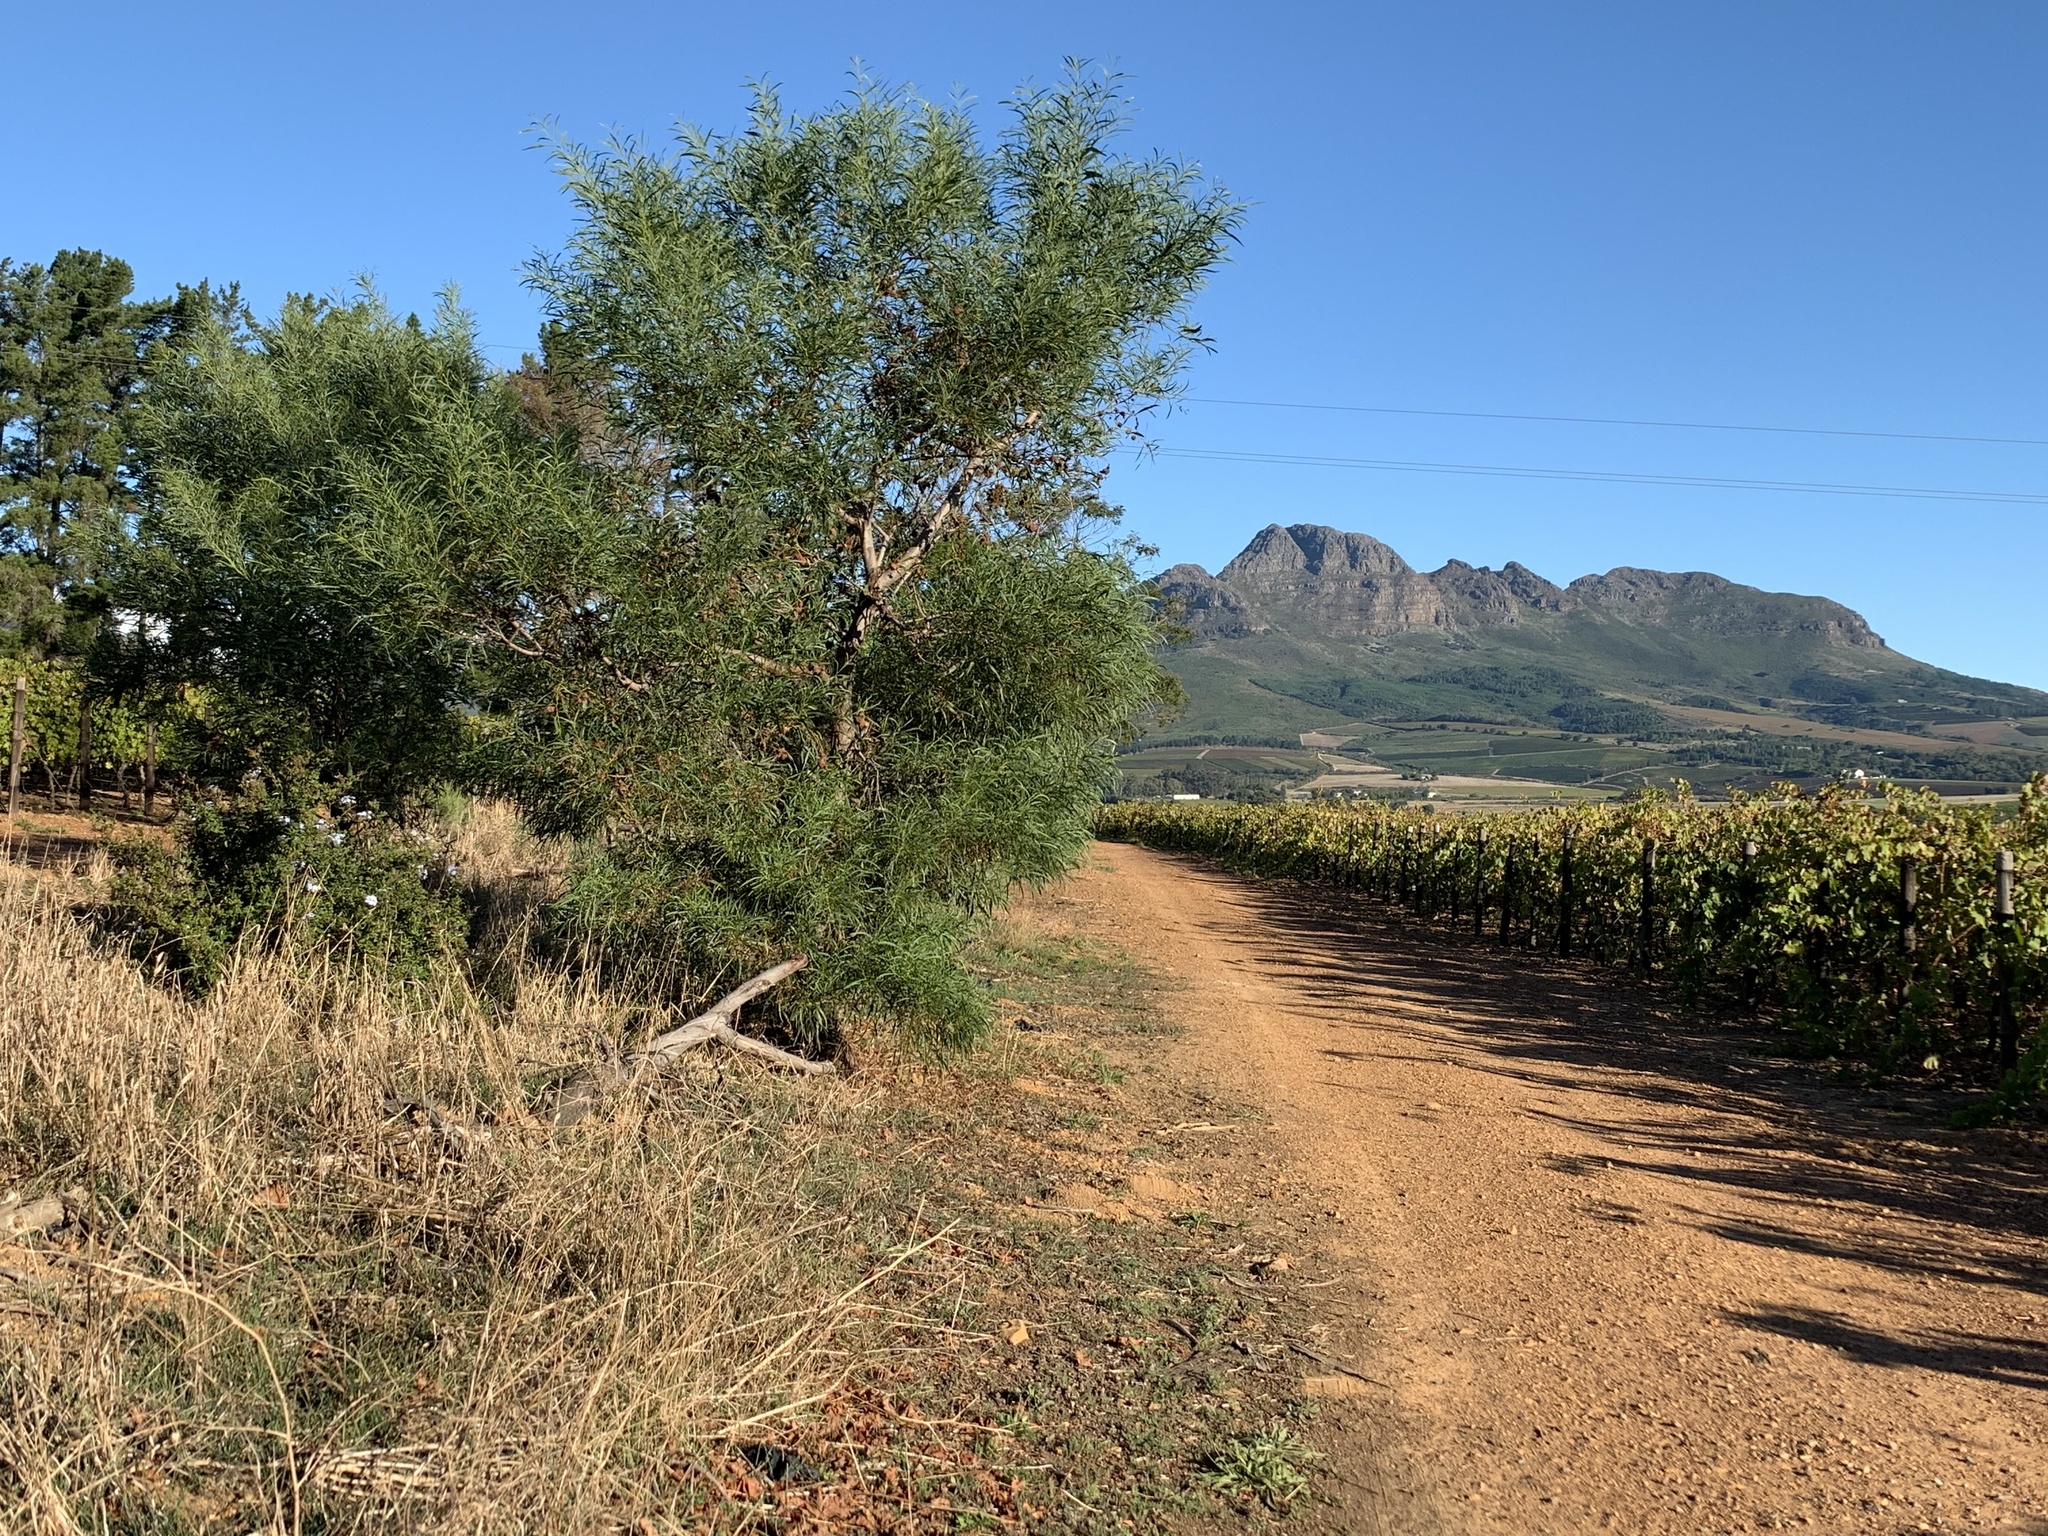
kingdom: Plantae
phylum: Tracheophyta
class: Magnoliopsida
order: Fabales
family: Fabaceae
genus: Acacia
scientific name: Acacia saligna
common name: Orange wattle
